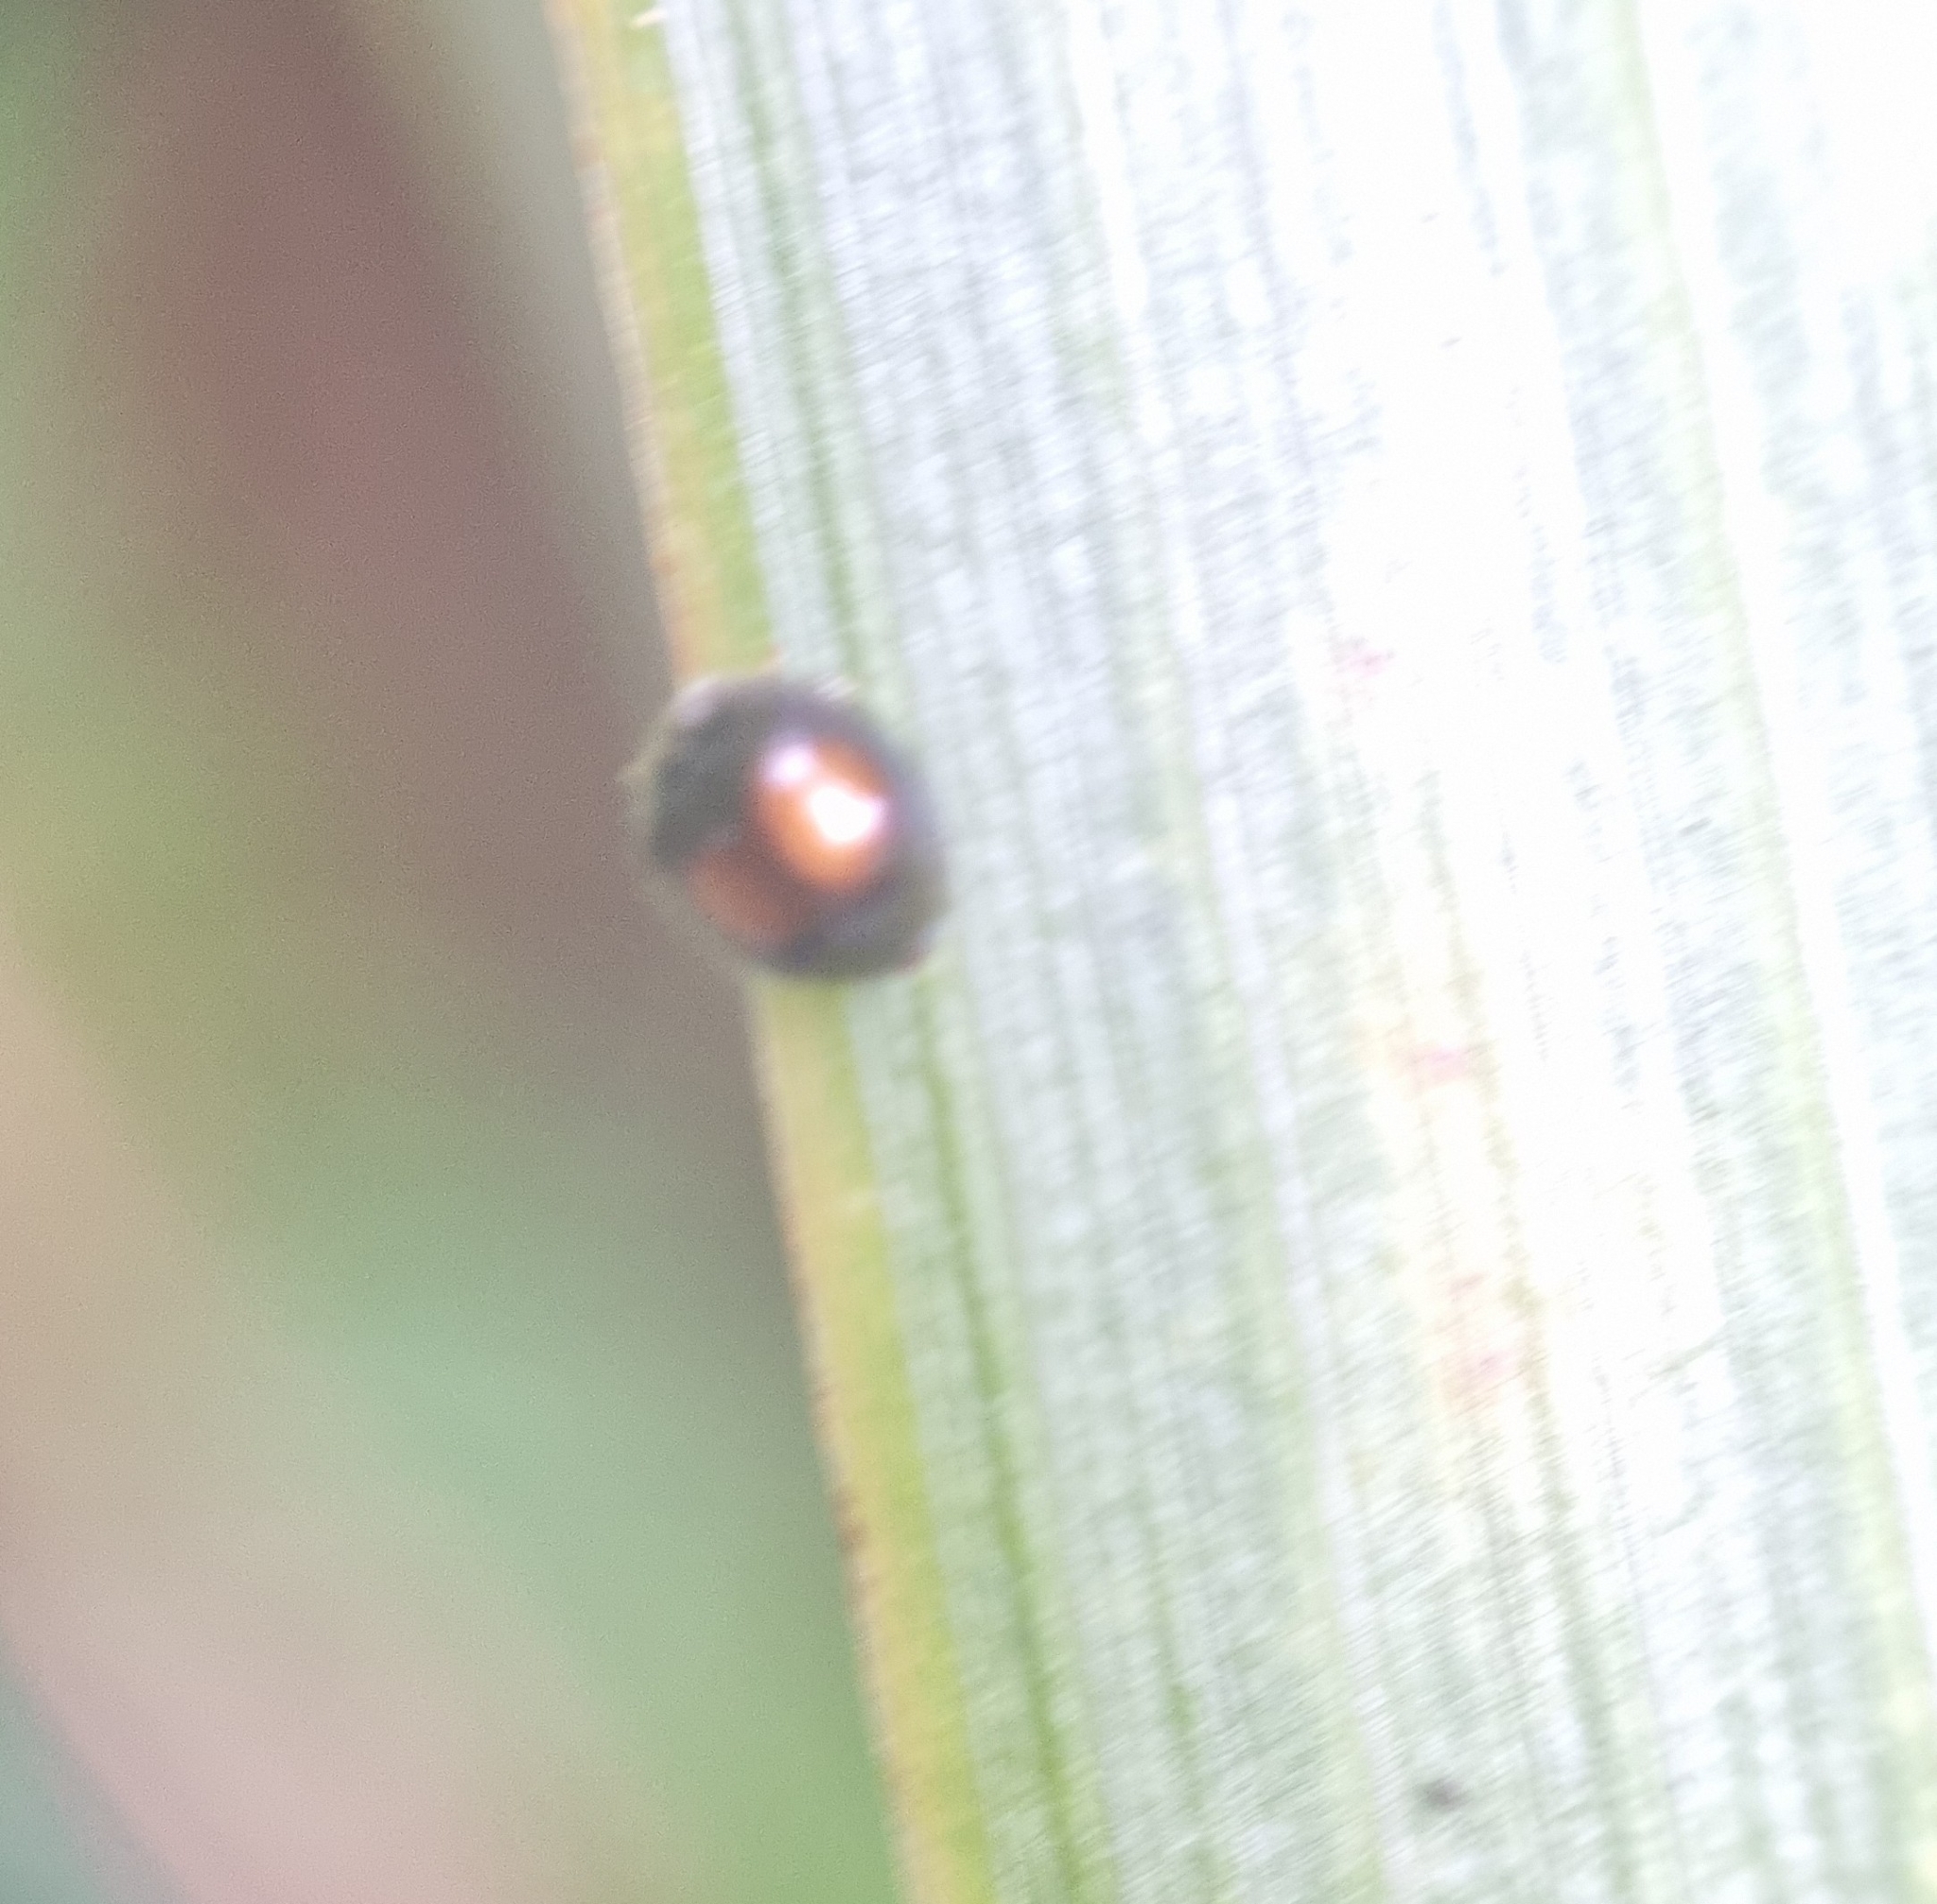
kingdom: Animalia
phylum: Arthropoda
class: Insecta
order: Coleoptera
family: Coccinellidae
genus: Serangium
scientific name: Serangium maculigerum
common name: Lady beetle
